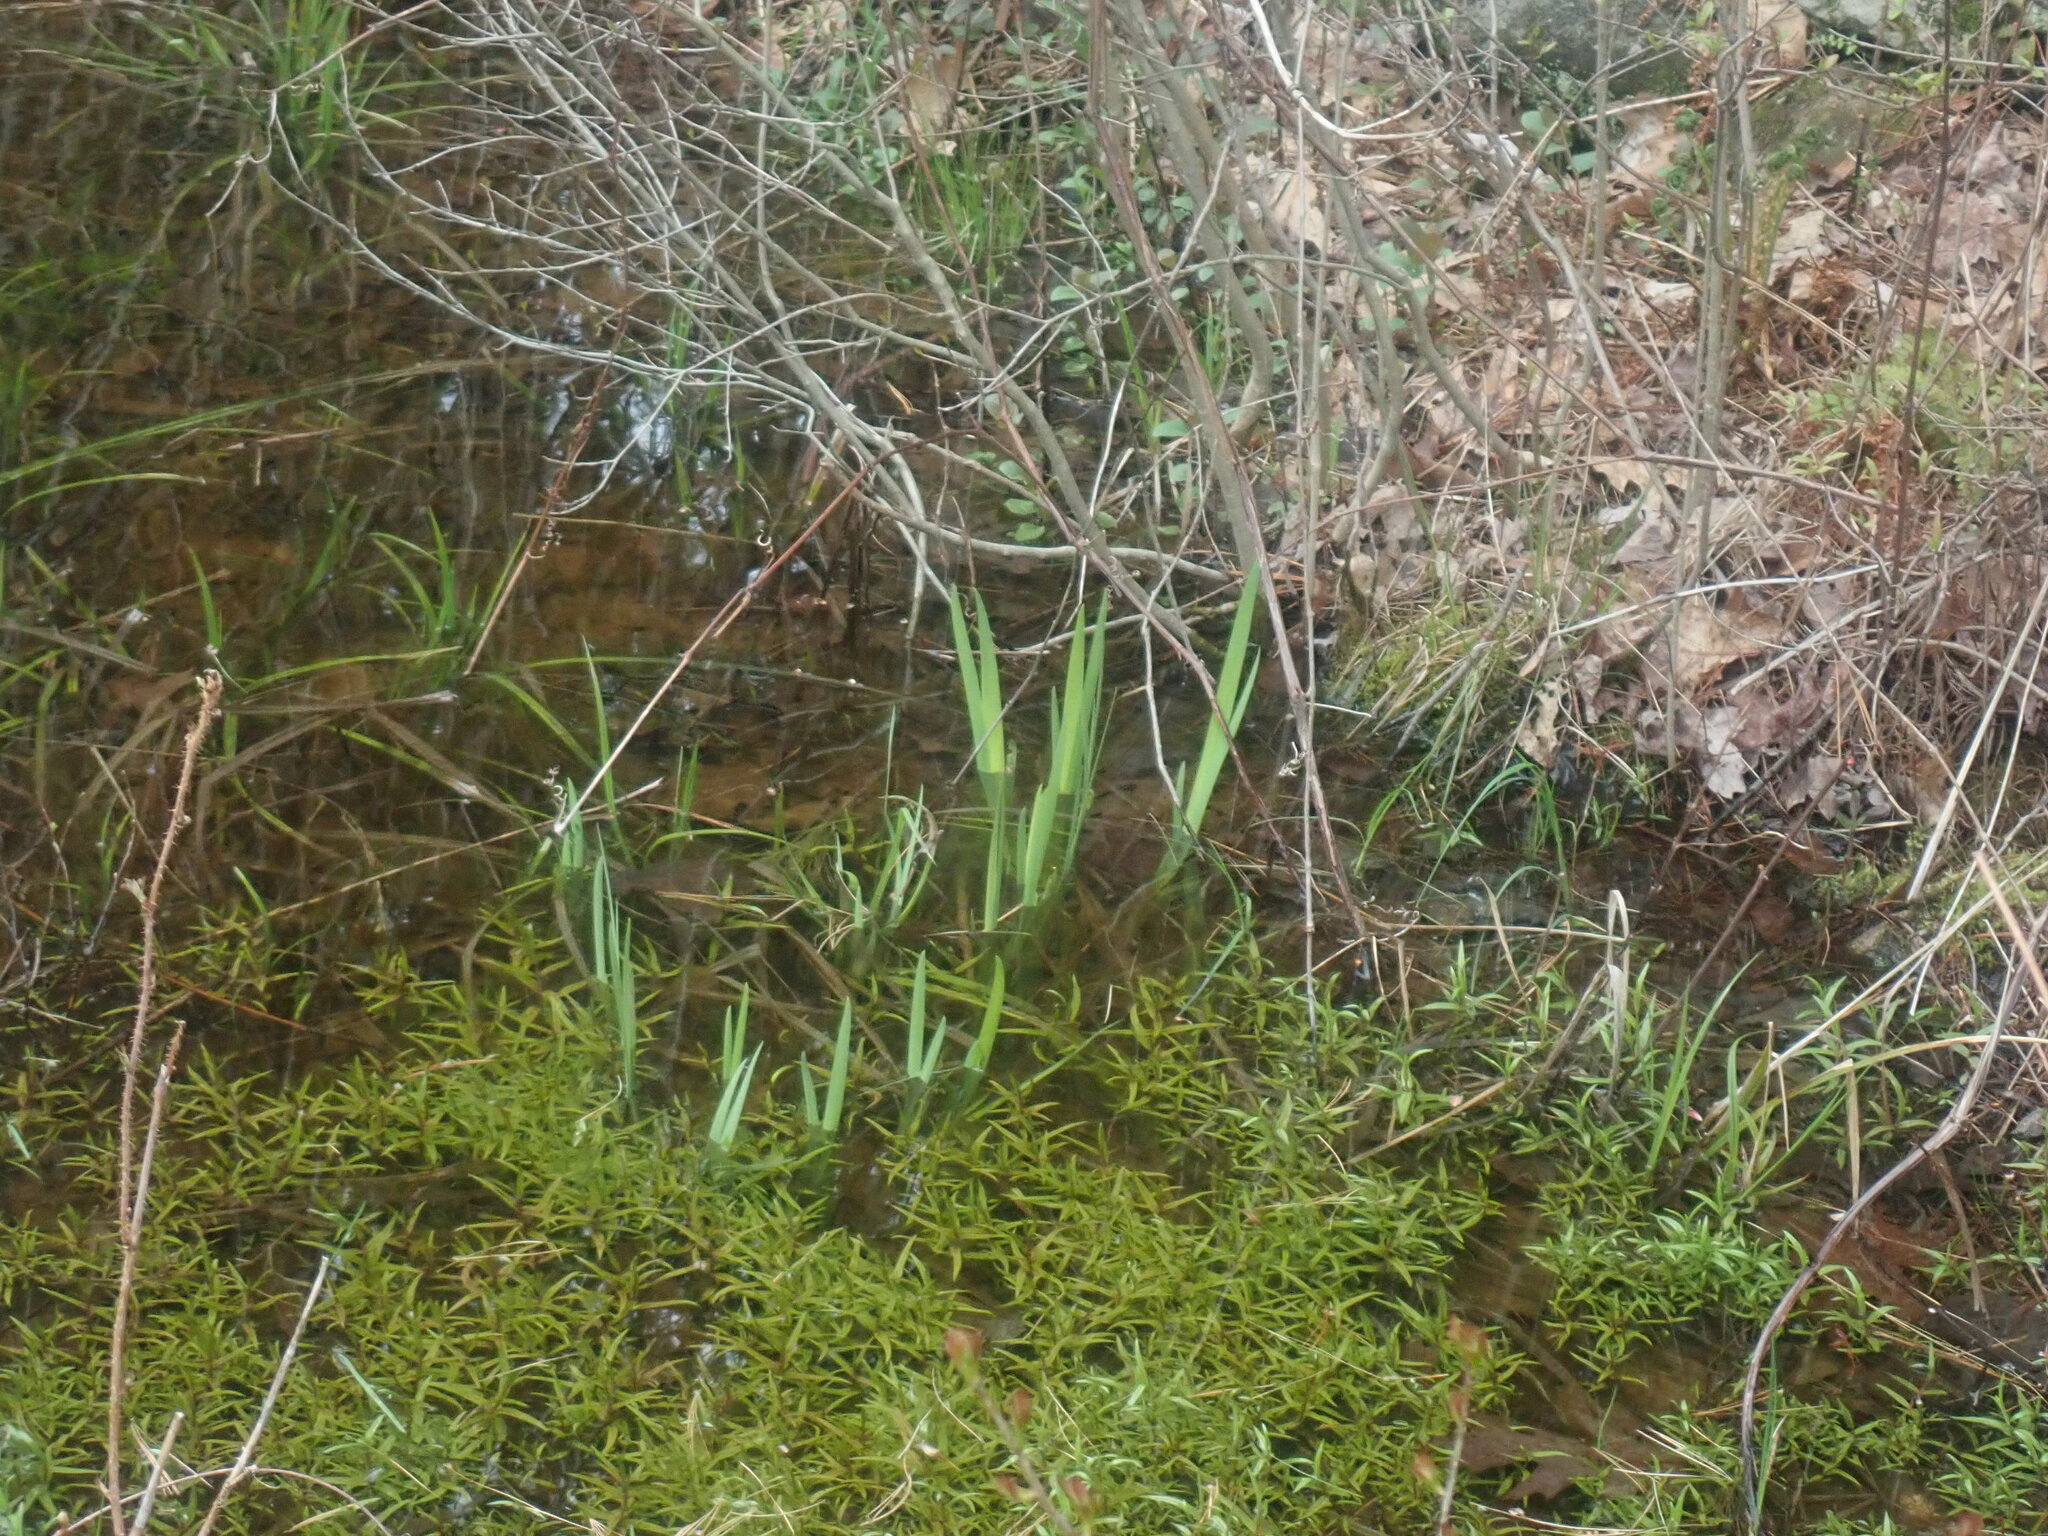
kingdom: Plantae
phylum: Tracheophyta
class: Liliopsida
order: Asparagales
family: Iridaceae
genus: Iris
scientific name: Iris
